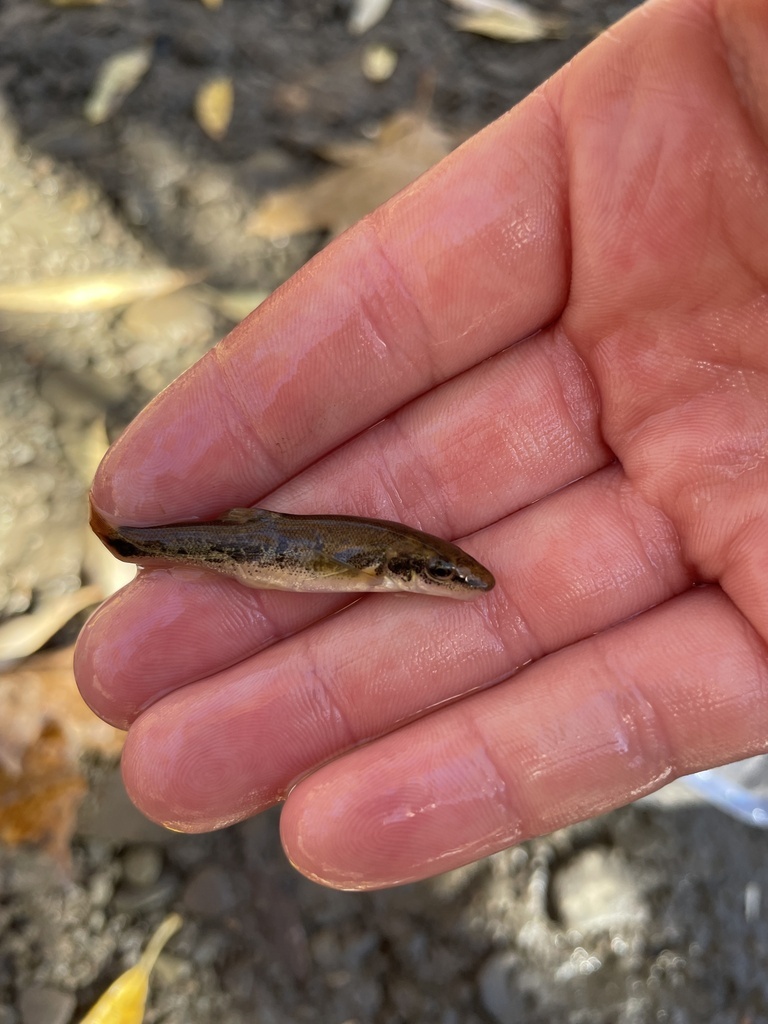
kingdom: Animalia
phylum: Chordata
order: Cypriniformes
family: Cyprinidae
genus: Rhinichthys
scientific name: Rhinichthys cataractae
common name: Longnose dace
